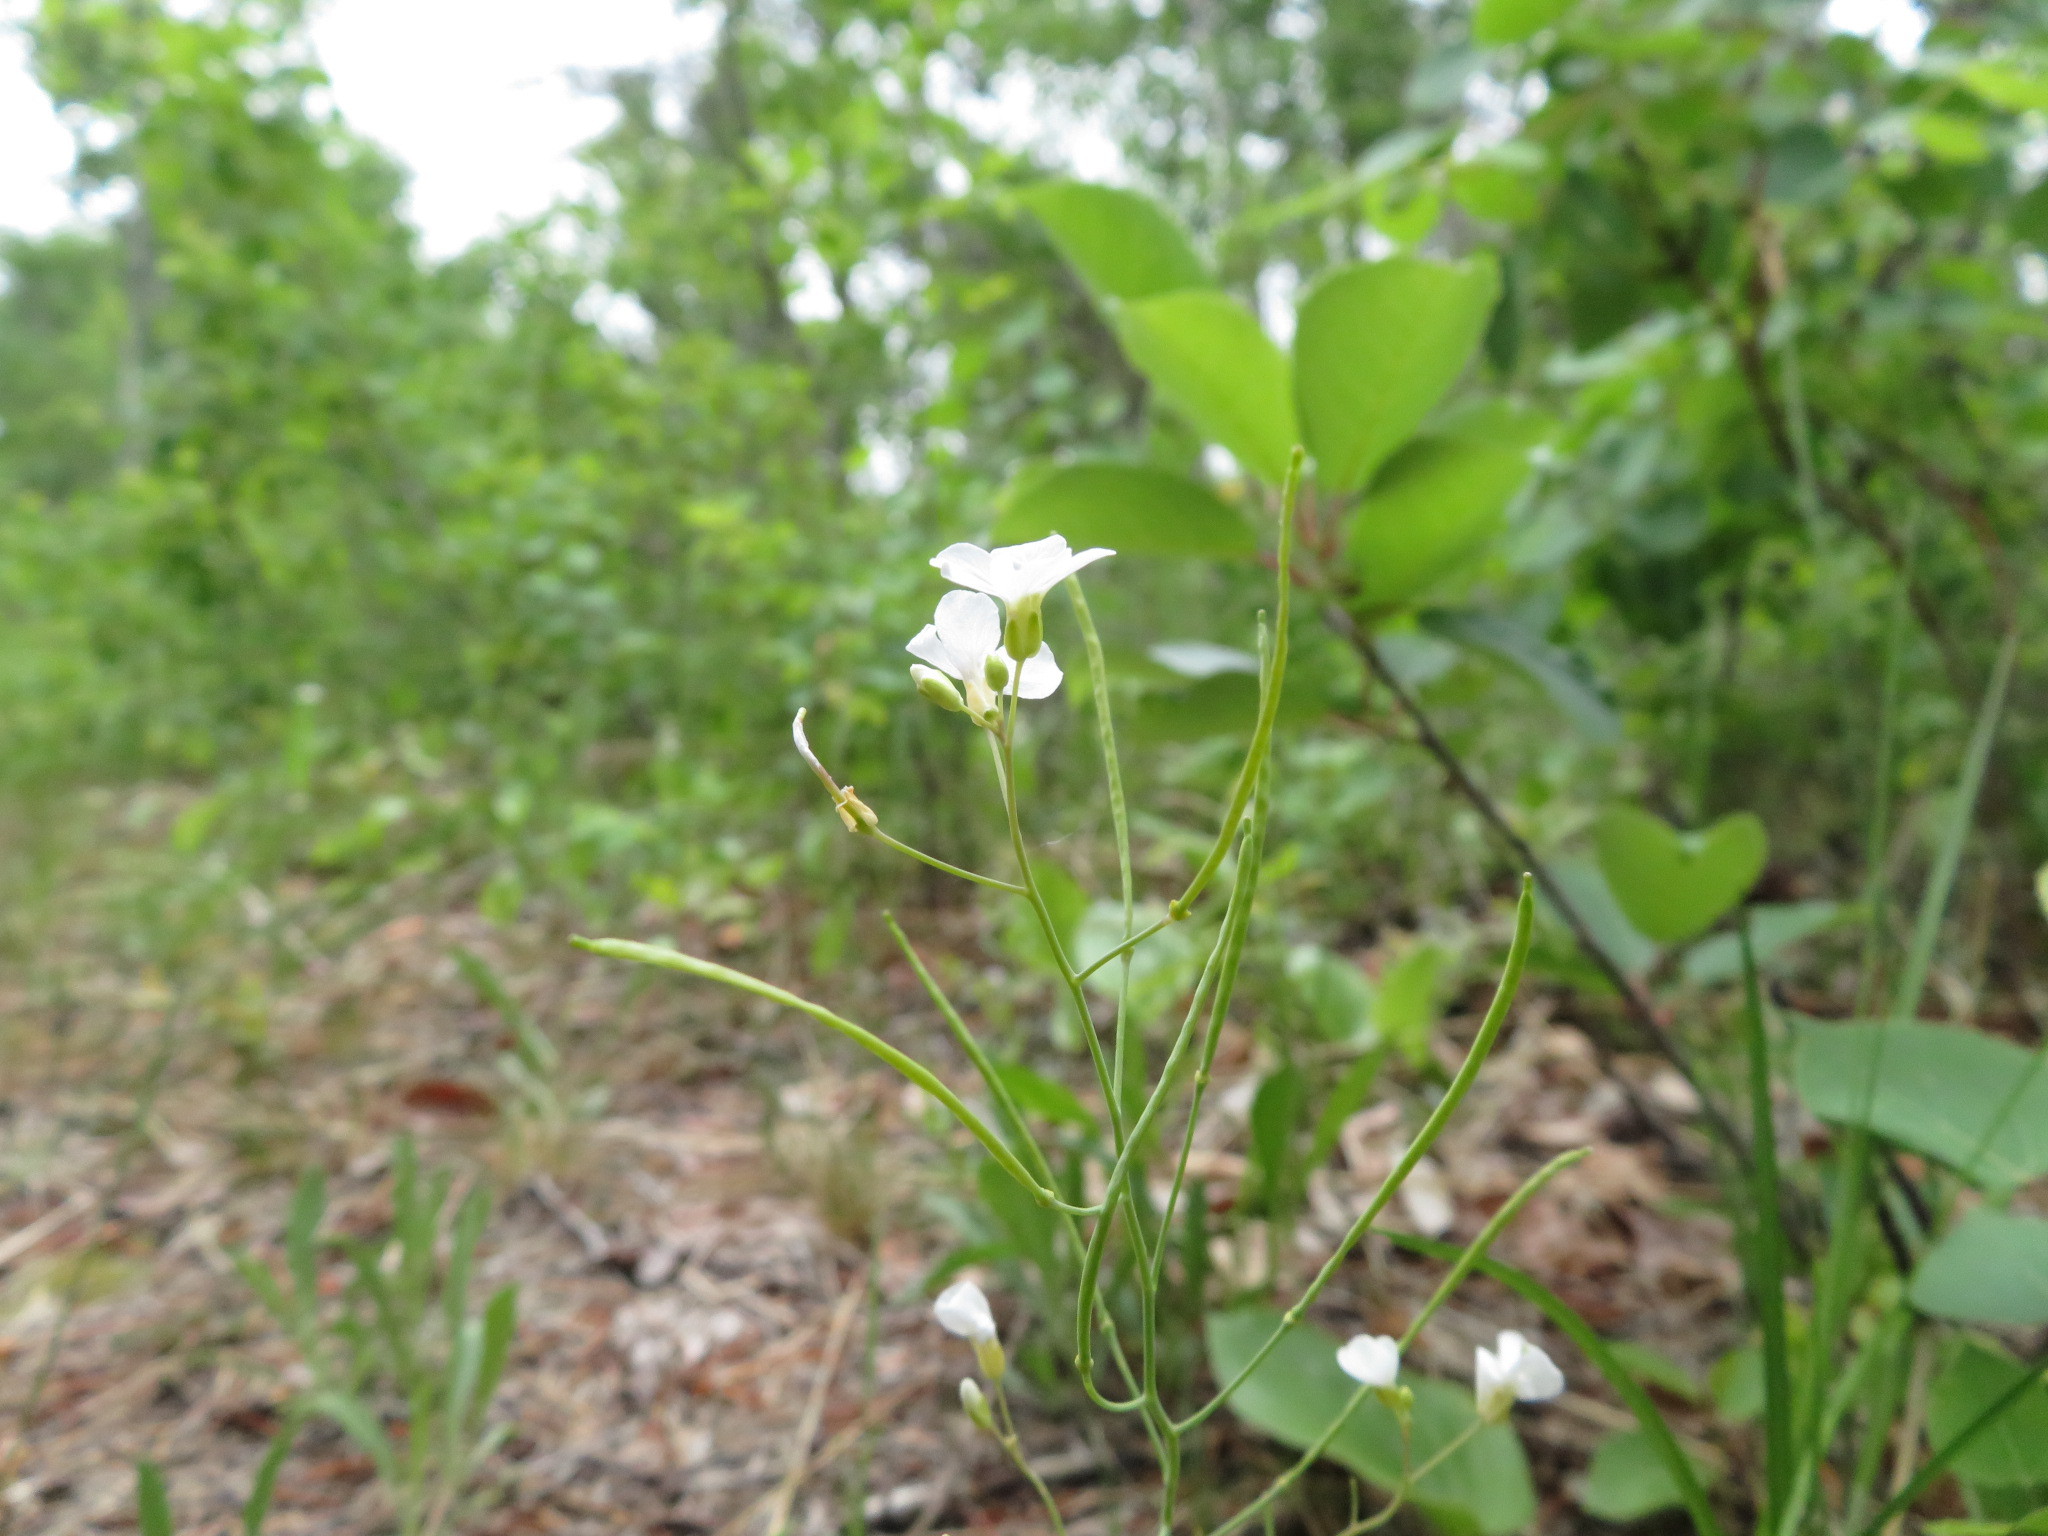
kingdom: Plantae
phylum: Tracheophyta
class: Magnoliopsida
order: Brassicales
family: Brassicaceae
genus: Arabidopsis
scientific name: Arabidopsis lyrata
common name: Lyrate rockcress
